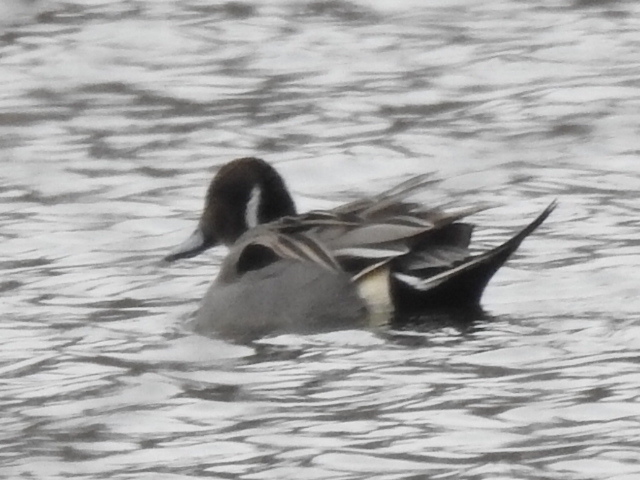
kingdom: Animalia
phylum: Chordata
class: Aves
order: Anseriformes
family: Anatidae
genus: Anas
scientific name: Anas acuta
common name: Northern pintail
